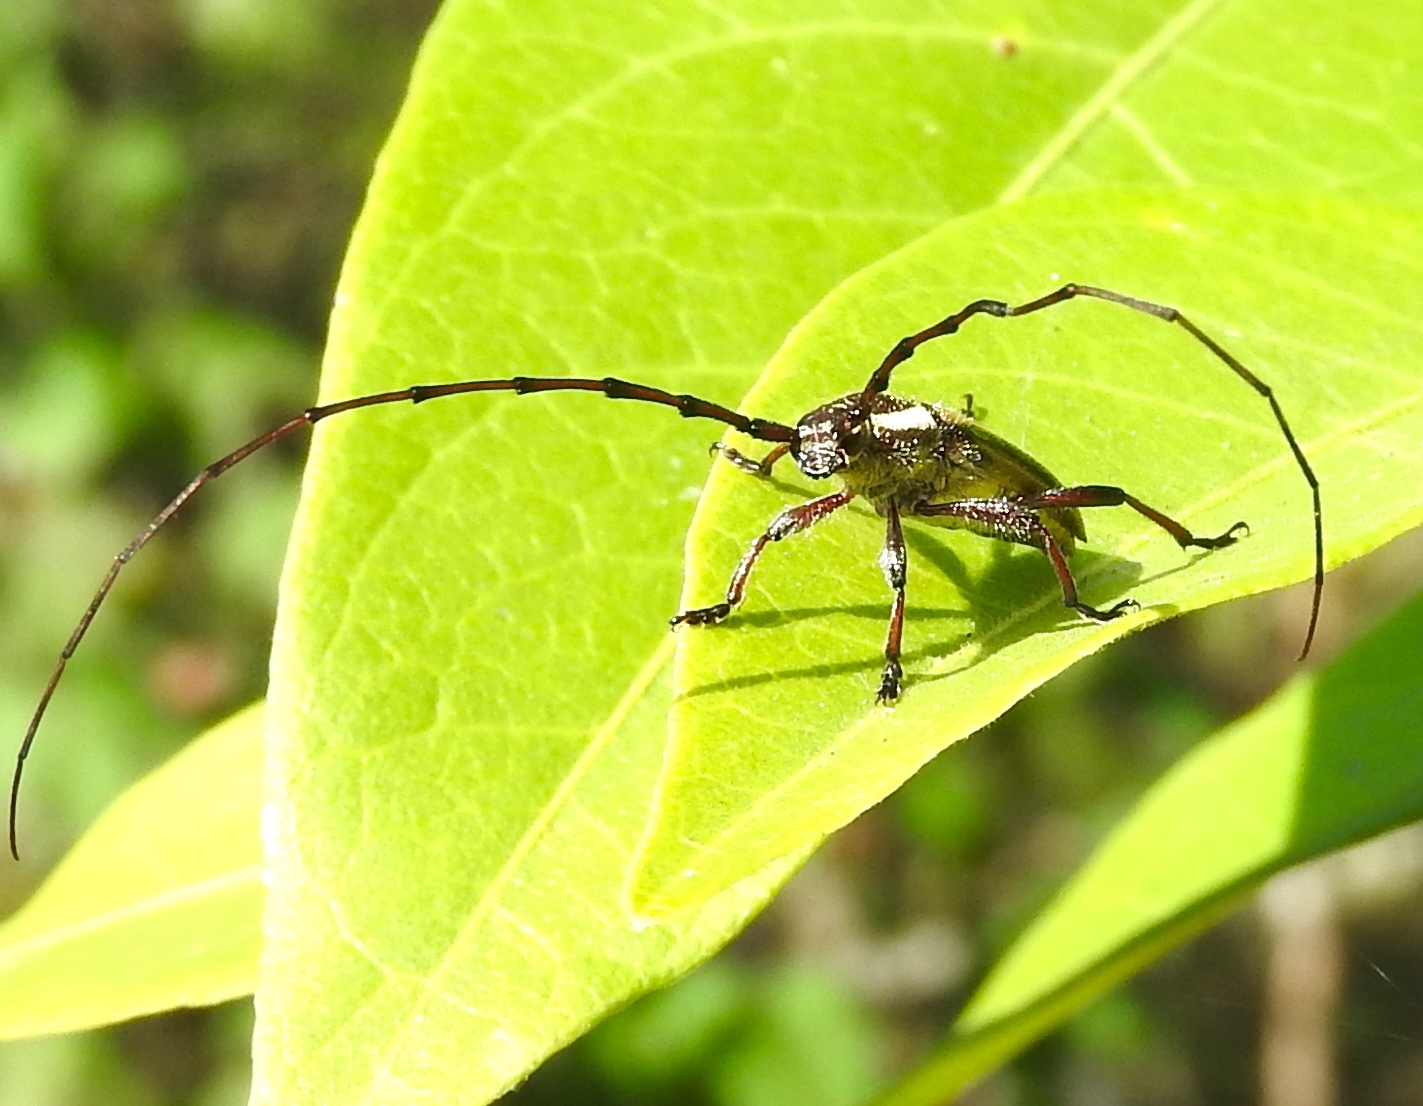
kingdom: Animalia
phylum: Arthropoda
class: Insecta
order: Coleoptera
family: Cerambycidae
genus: Sphaenothecus
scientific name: Sphaenothecus maccartyi
